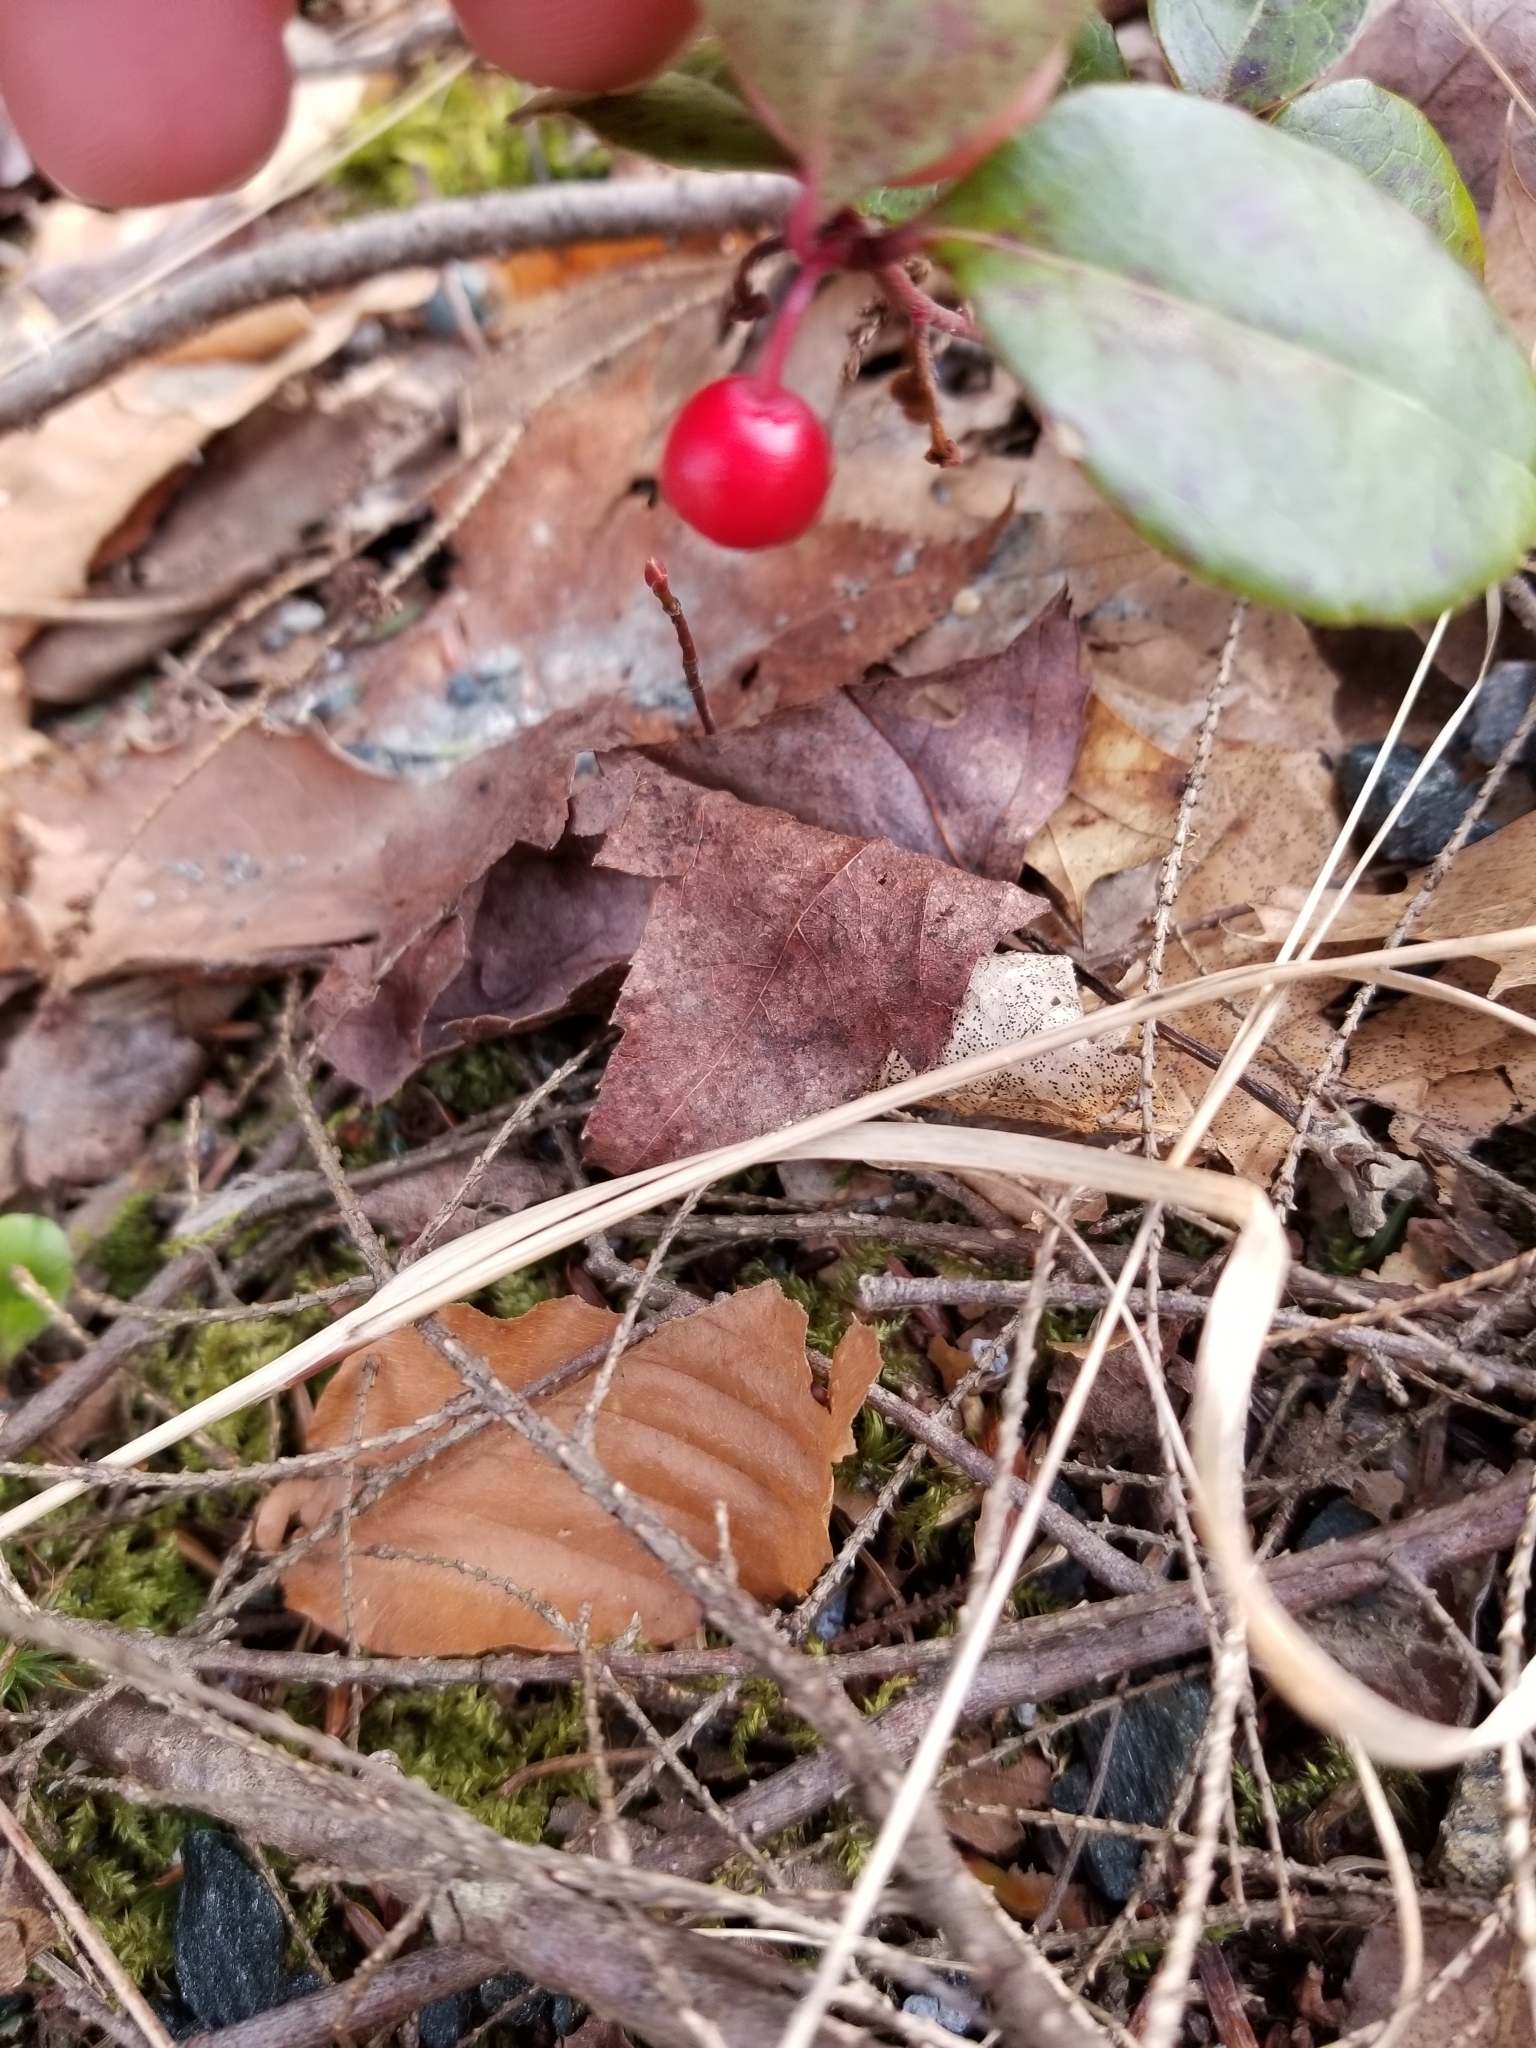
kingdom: Plantae
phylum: Tracheophyta
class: Magnoliopsida
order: Ericales
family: Ericaceae
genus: Gaultheria
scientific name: Gaultheria procumbens
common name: Checkerberry
